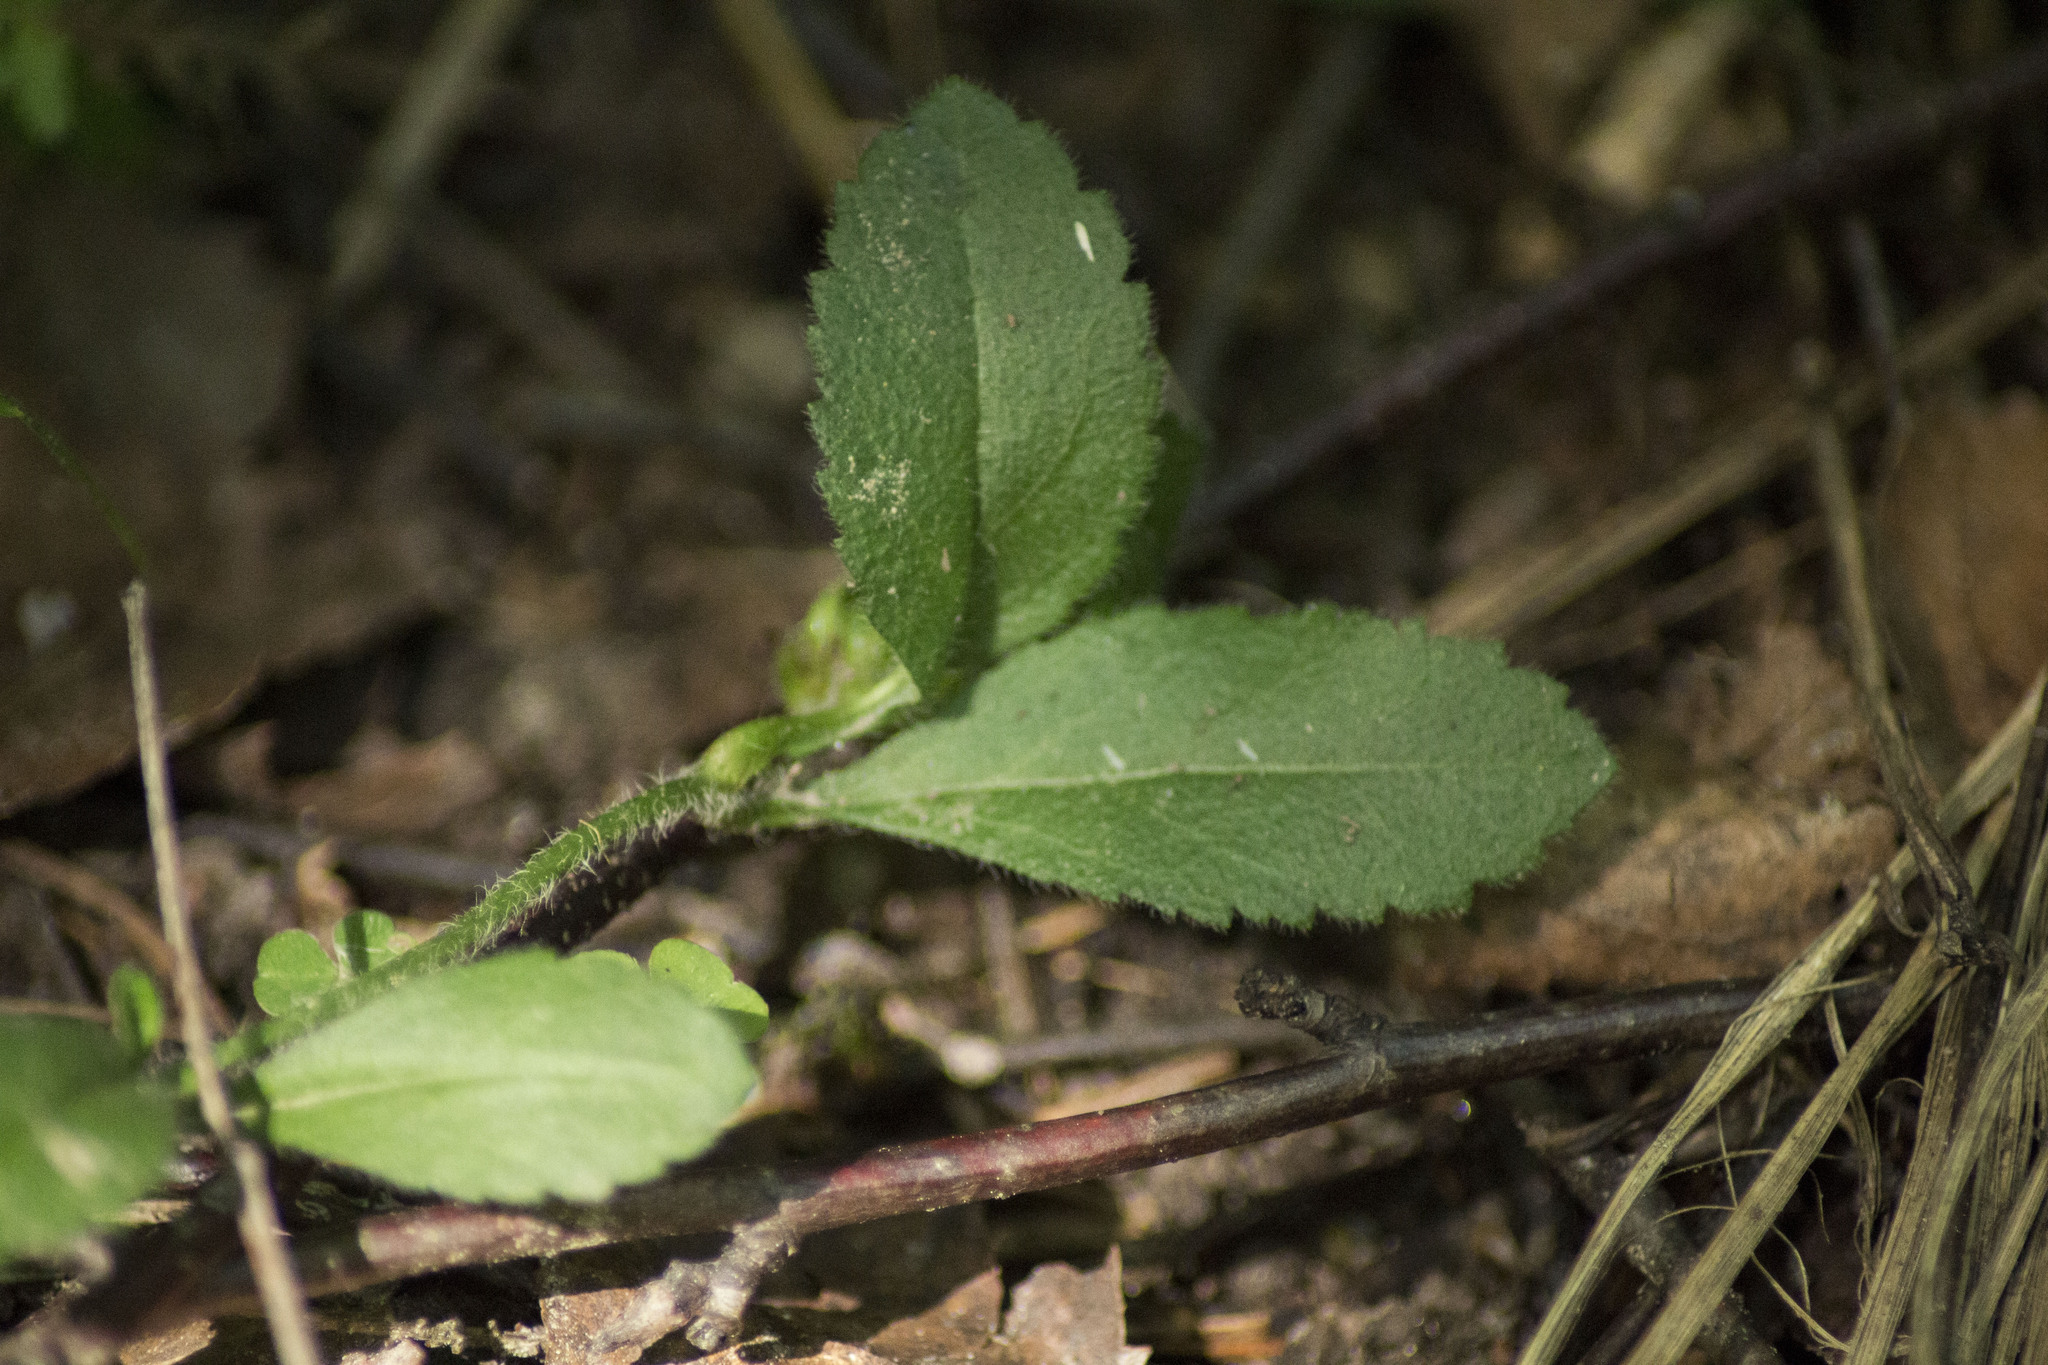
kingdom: Plantae
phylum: Tracheophyta
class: Magnoliopsida
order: Lamiales
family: Plantaginaceae
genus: Veronica
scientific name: Veronica officinalis
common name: Common speedwell
